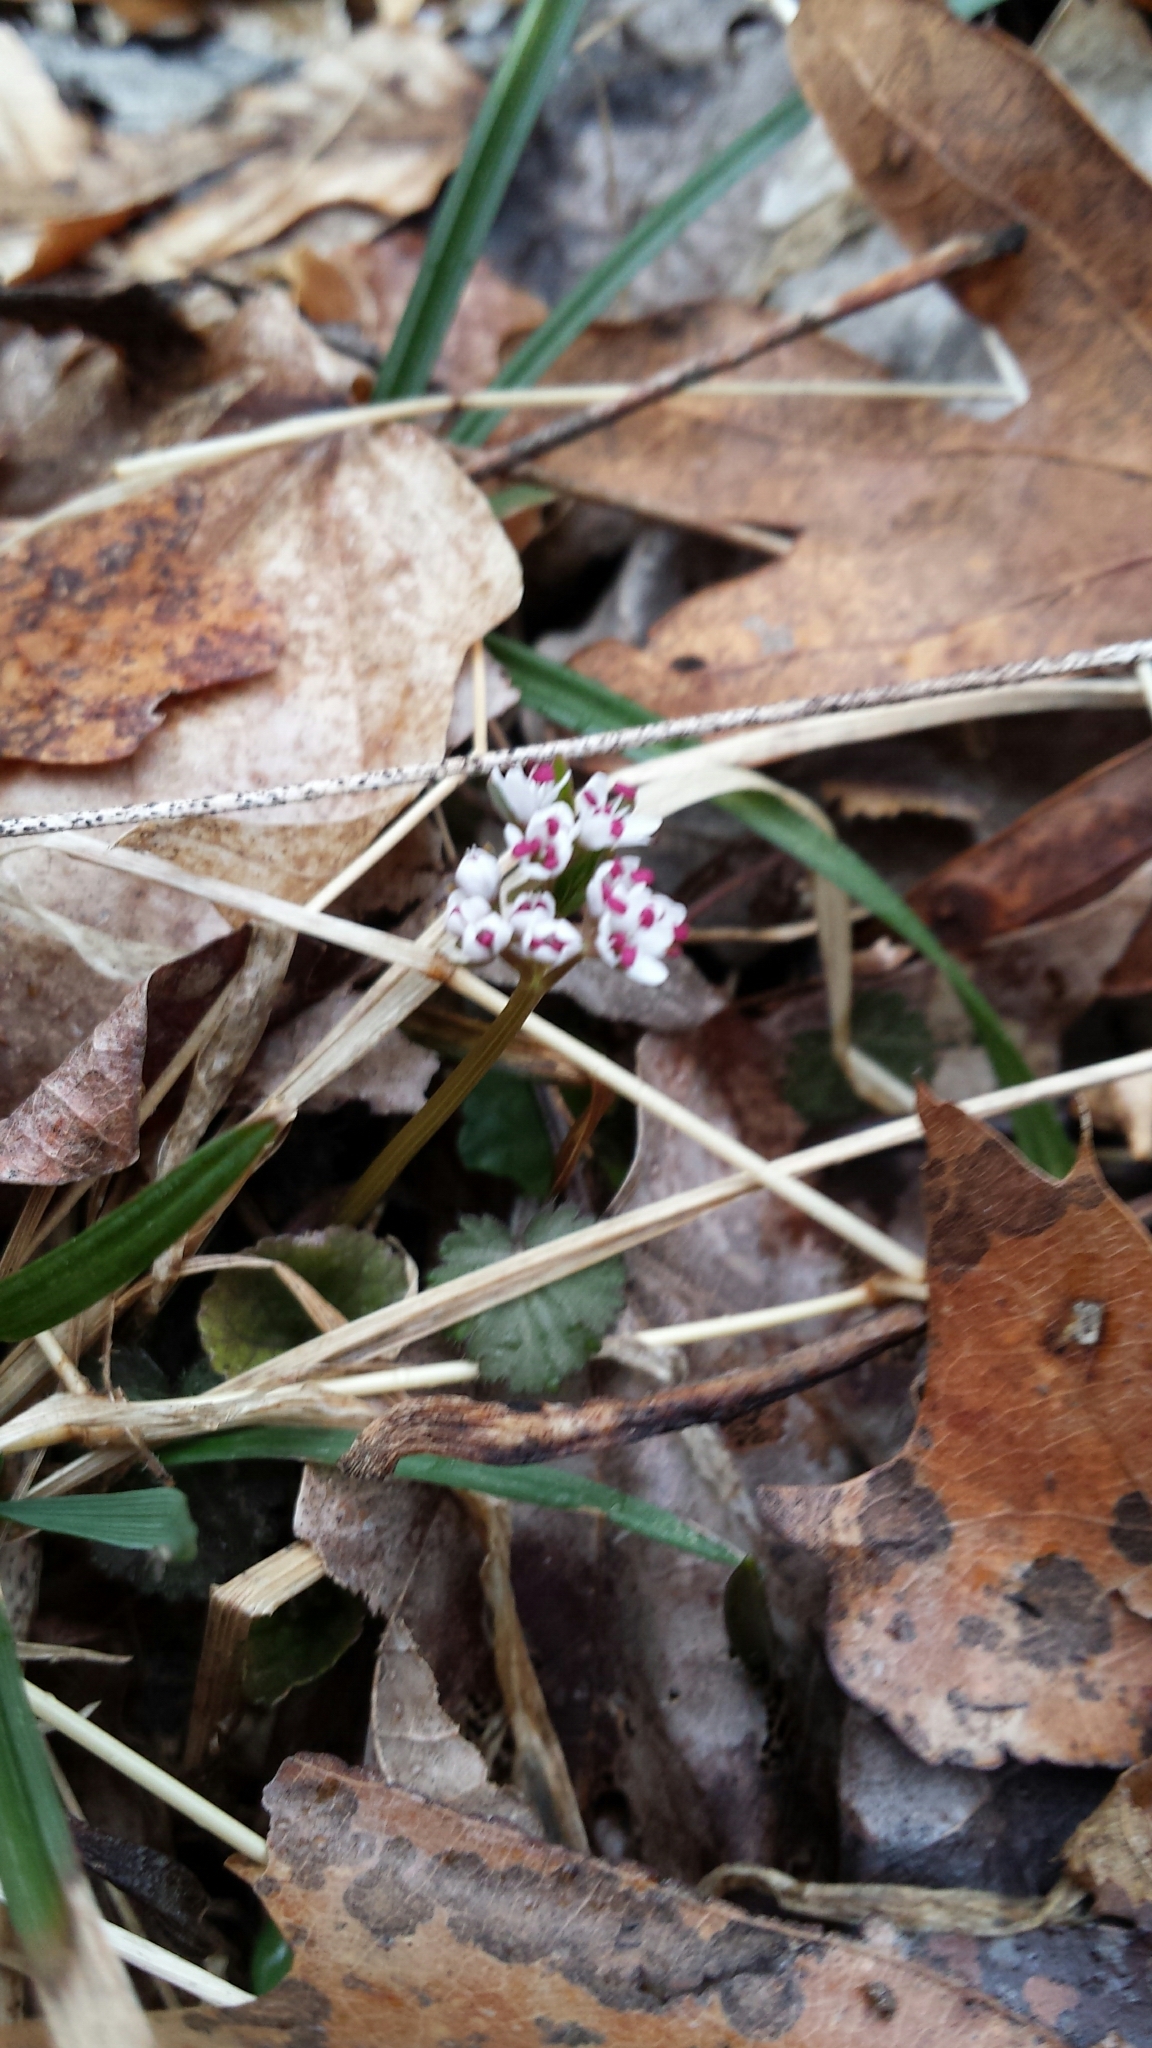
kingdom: Plantae
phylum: Tracheophyta
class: Magnoliopsida
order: Apiales
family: Apiaceae
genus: Erigenia
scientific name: Erigenia bulbosa
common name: Pepper-and-salt
